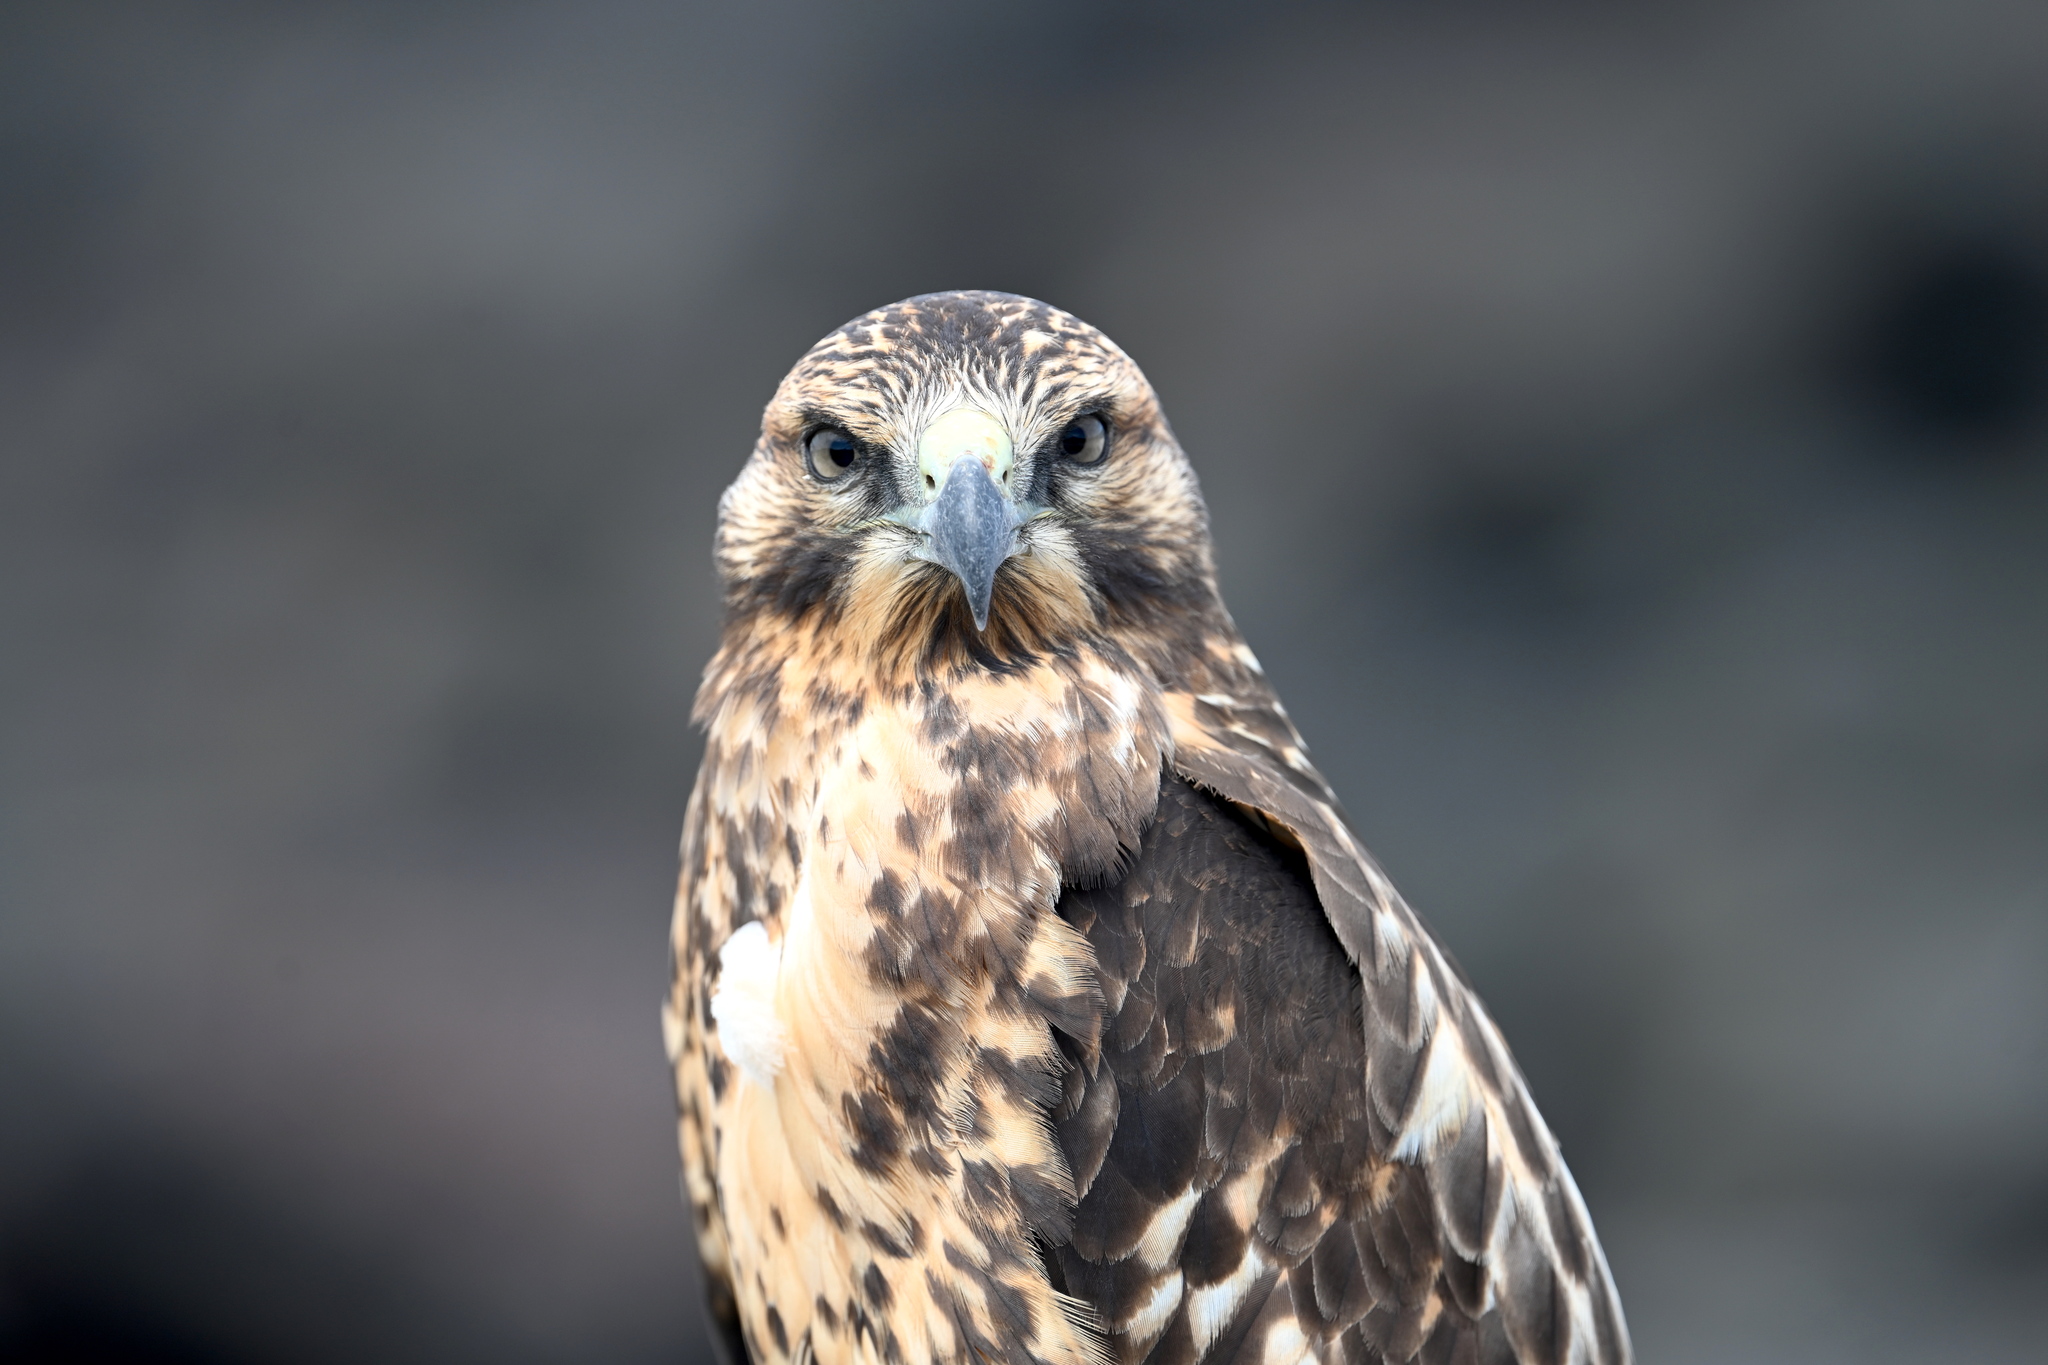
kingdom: Animalia
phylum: Chordata
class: Aves
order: Accipitriformes
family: Accipitridae
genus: Buteo
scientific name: Buteo galapagoensis
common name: Galapagos hawk
